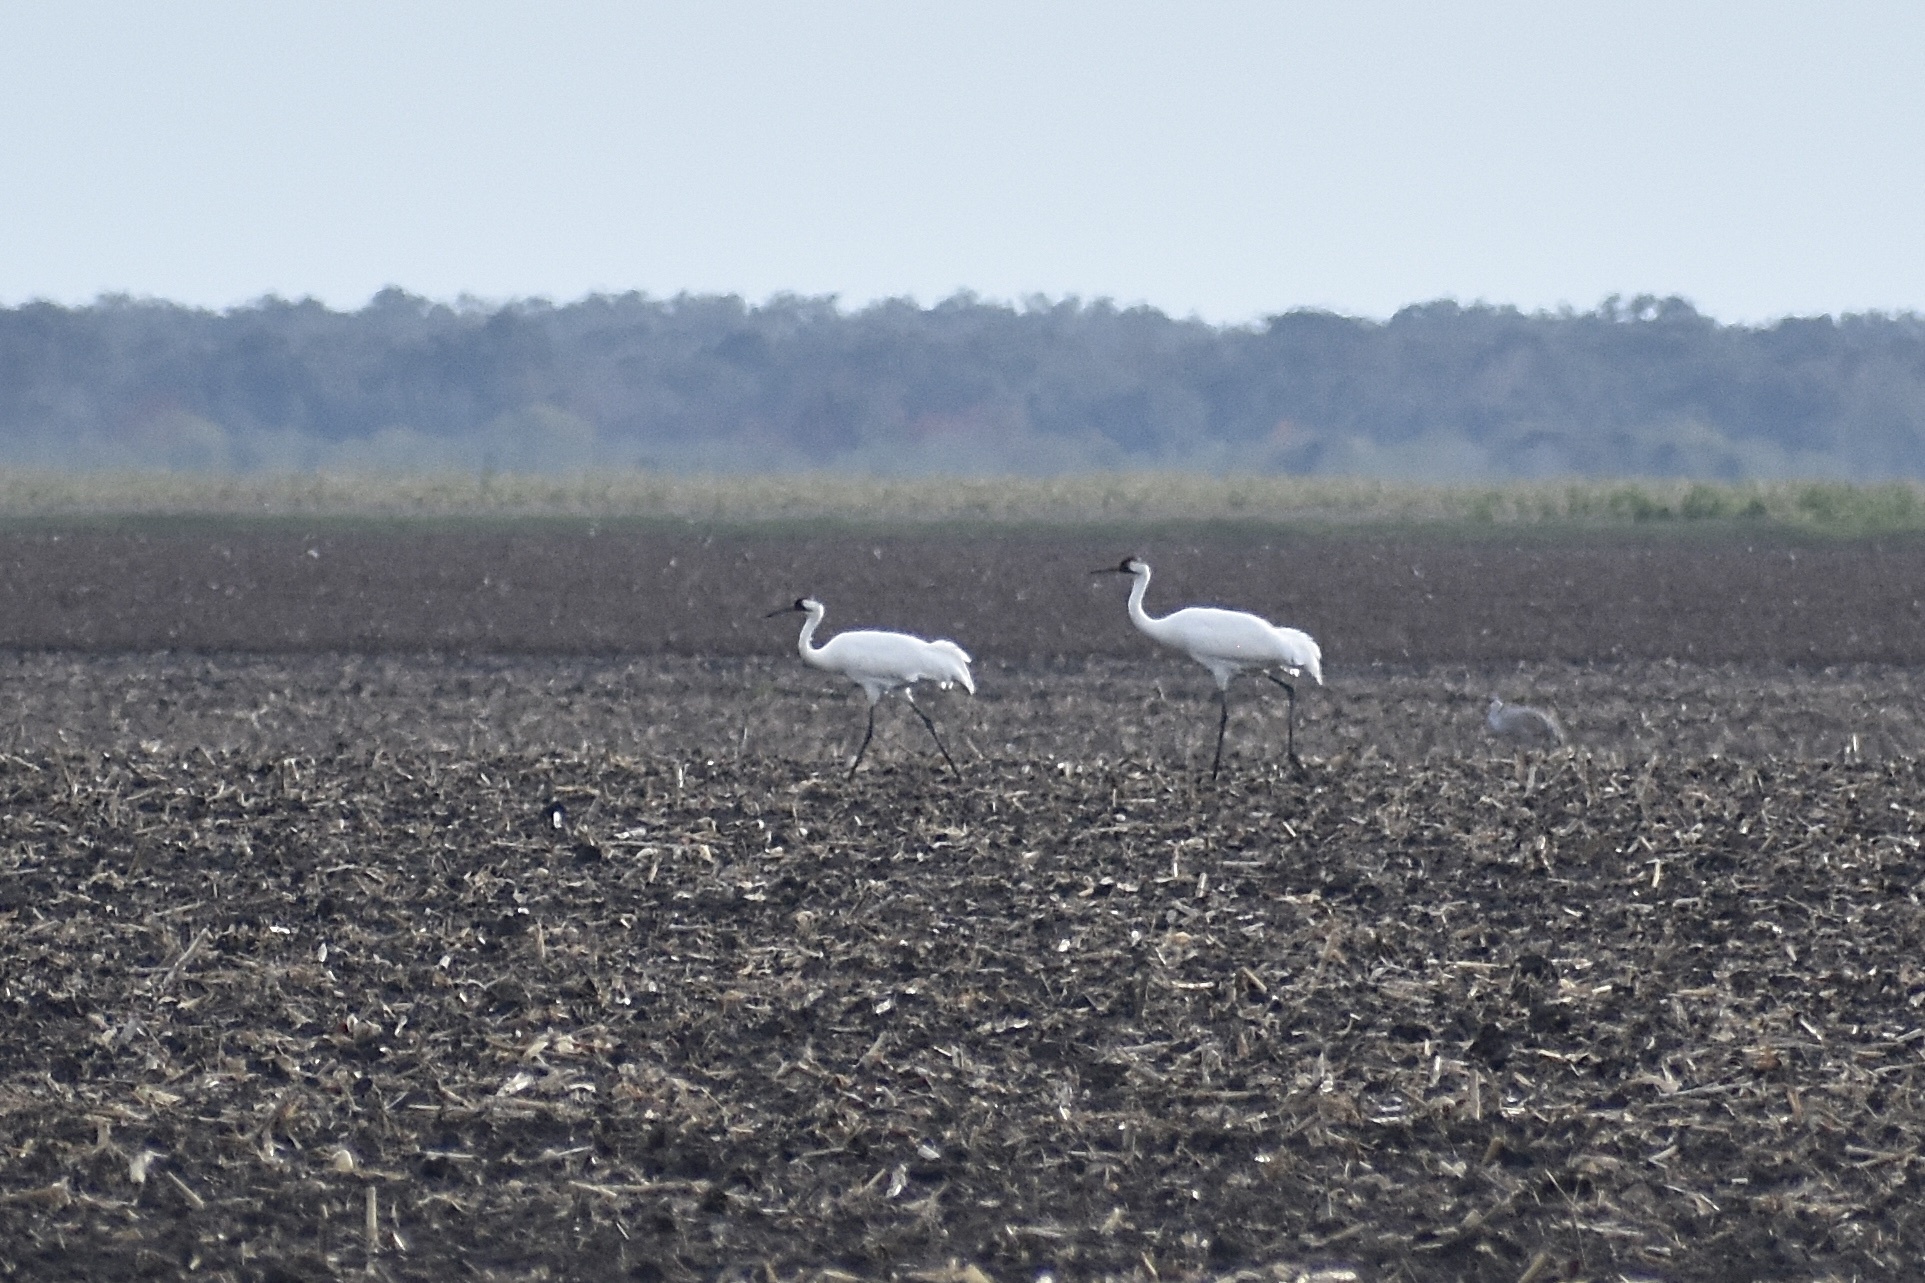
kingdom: Animalia
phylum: Chordata
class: Aves
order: Gruiformes
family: Gruidae
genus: Grus
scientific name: Grus americana
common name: Whooping crane
